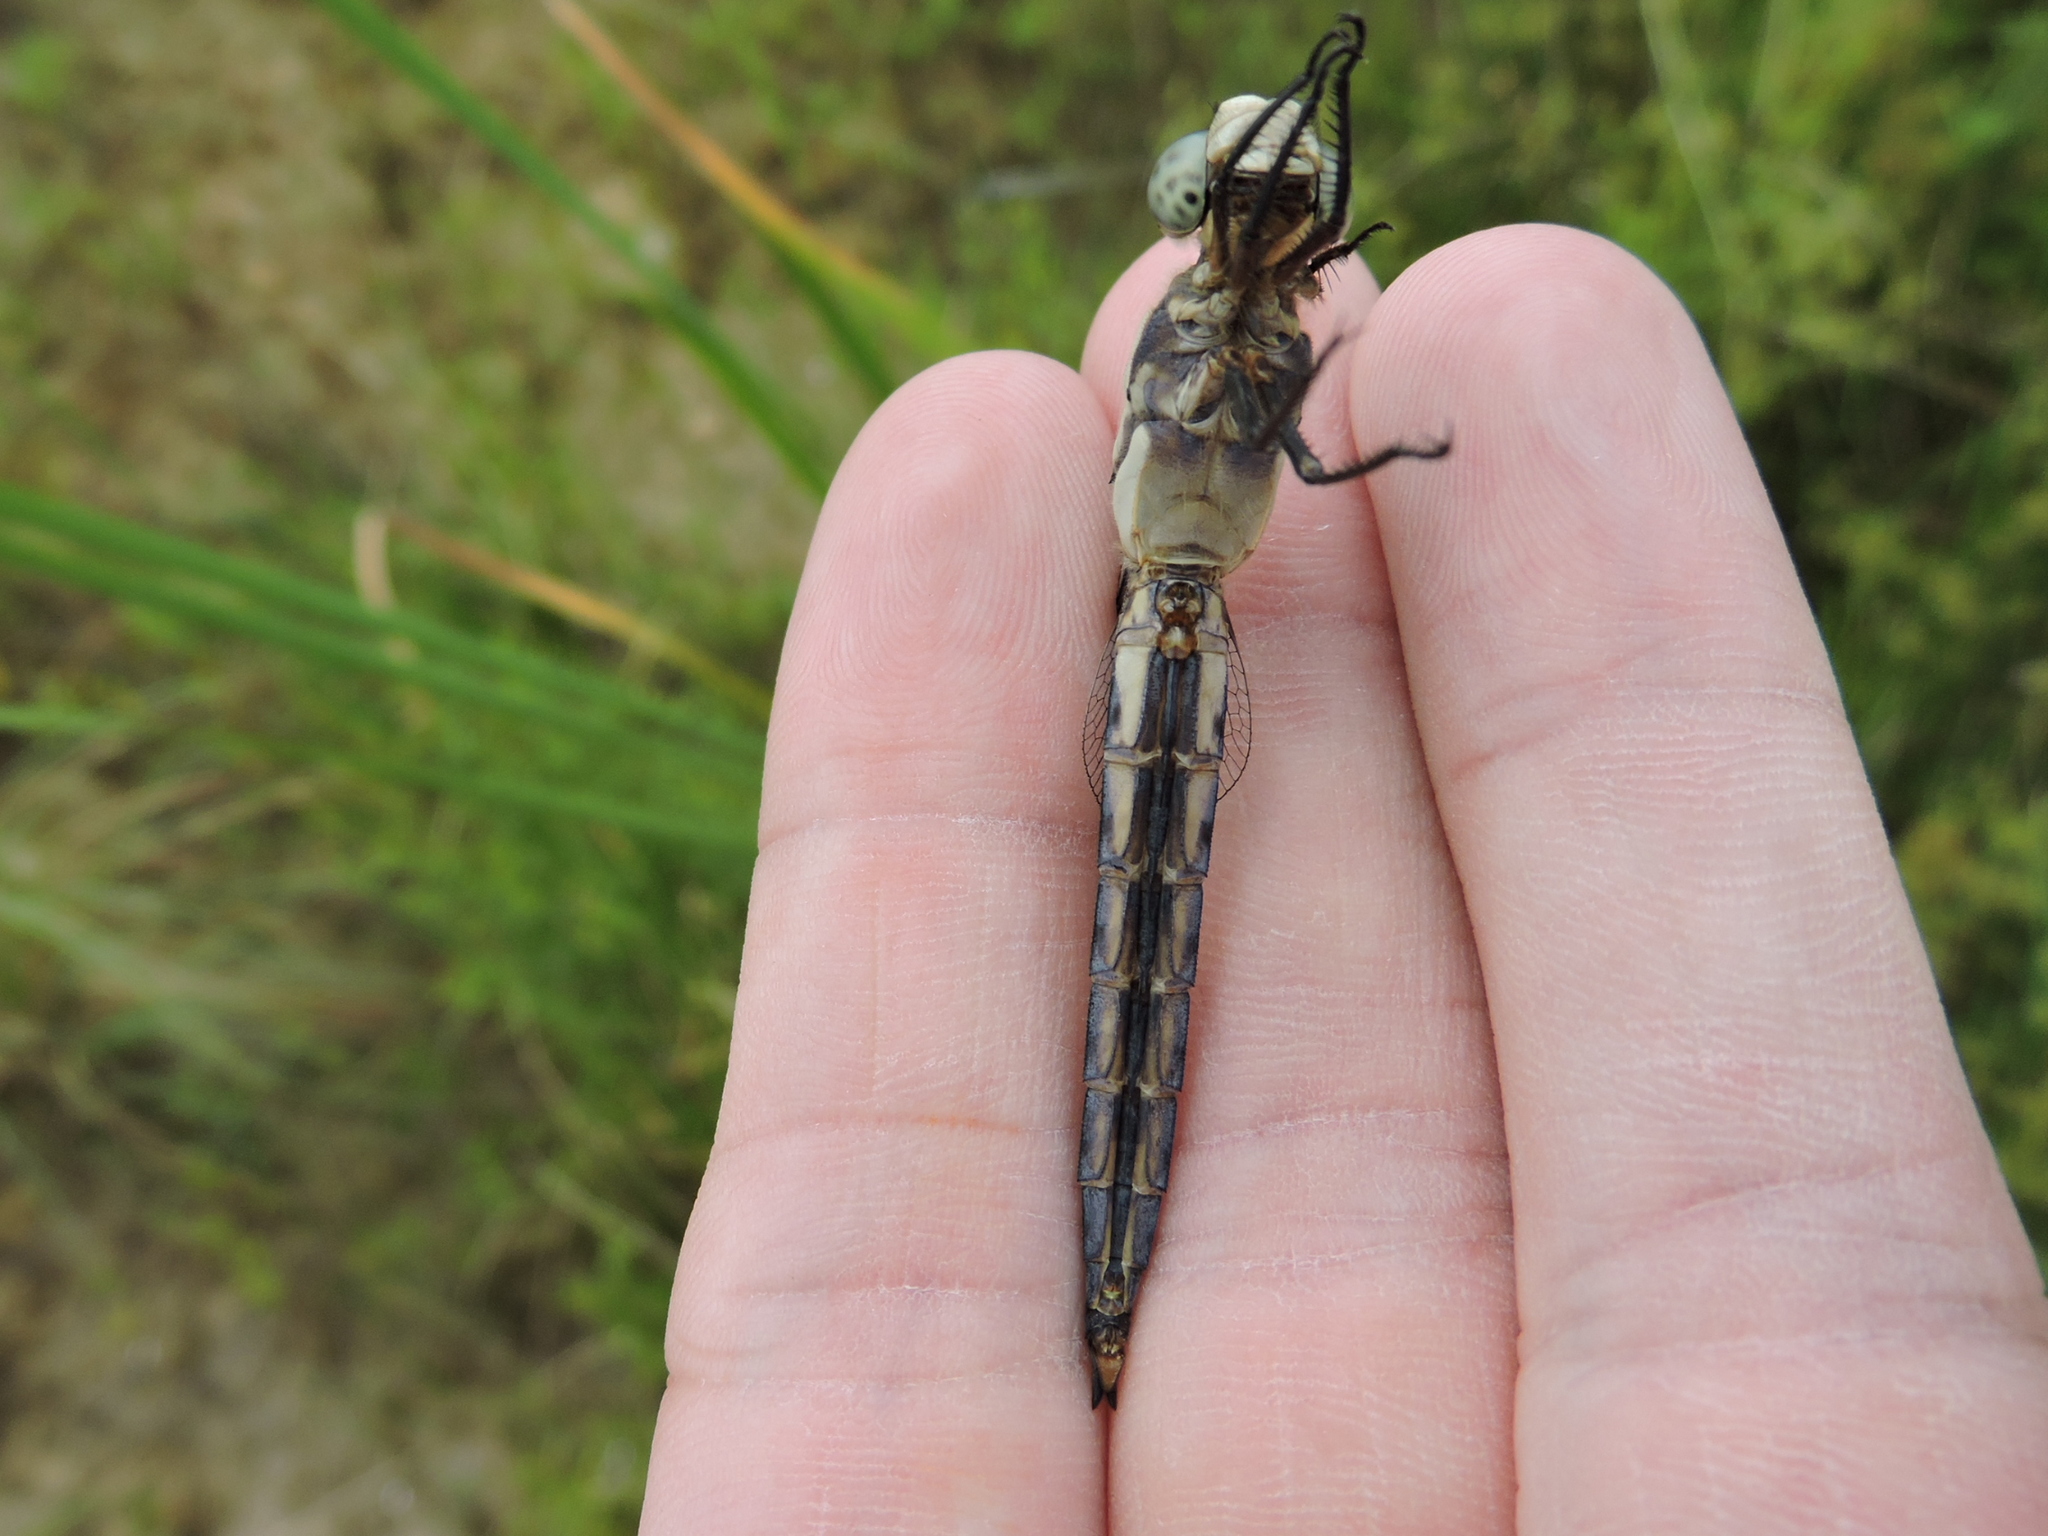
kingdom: Animalia
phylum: Arthropoda
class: Insecta
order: Odonata
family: Libellulidae
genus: Libellula
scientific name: Libellula comanche
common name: Comanche skimmer
